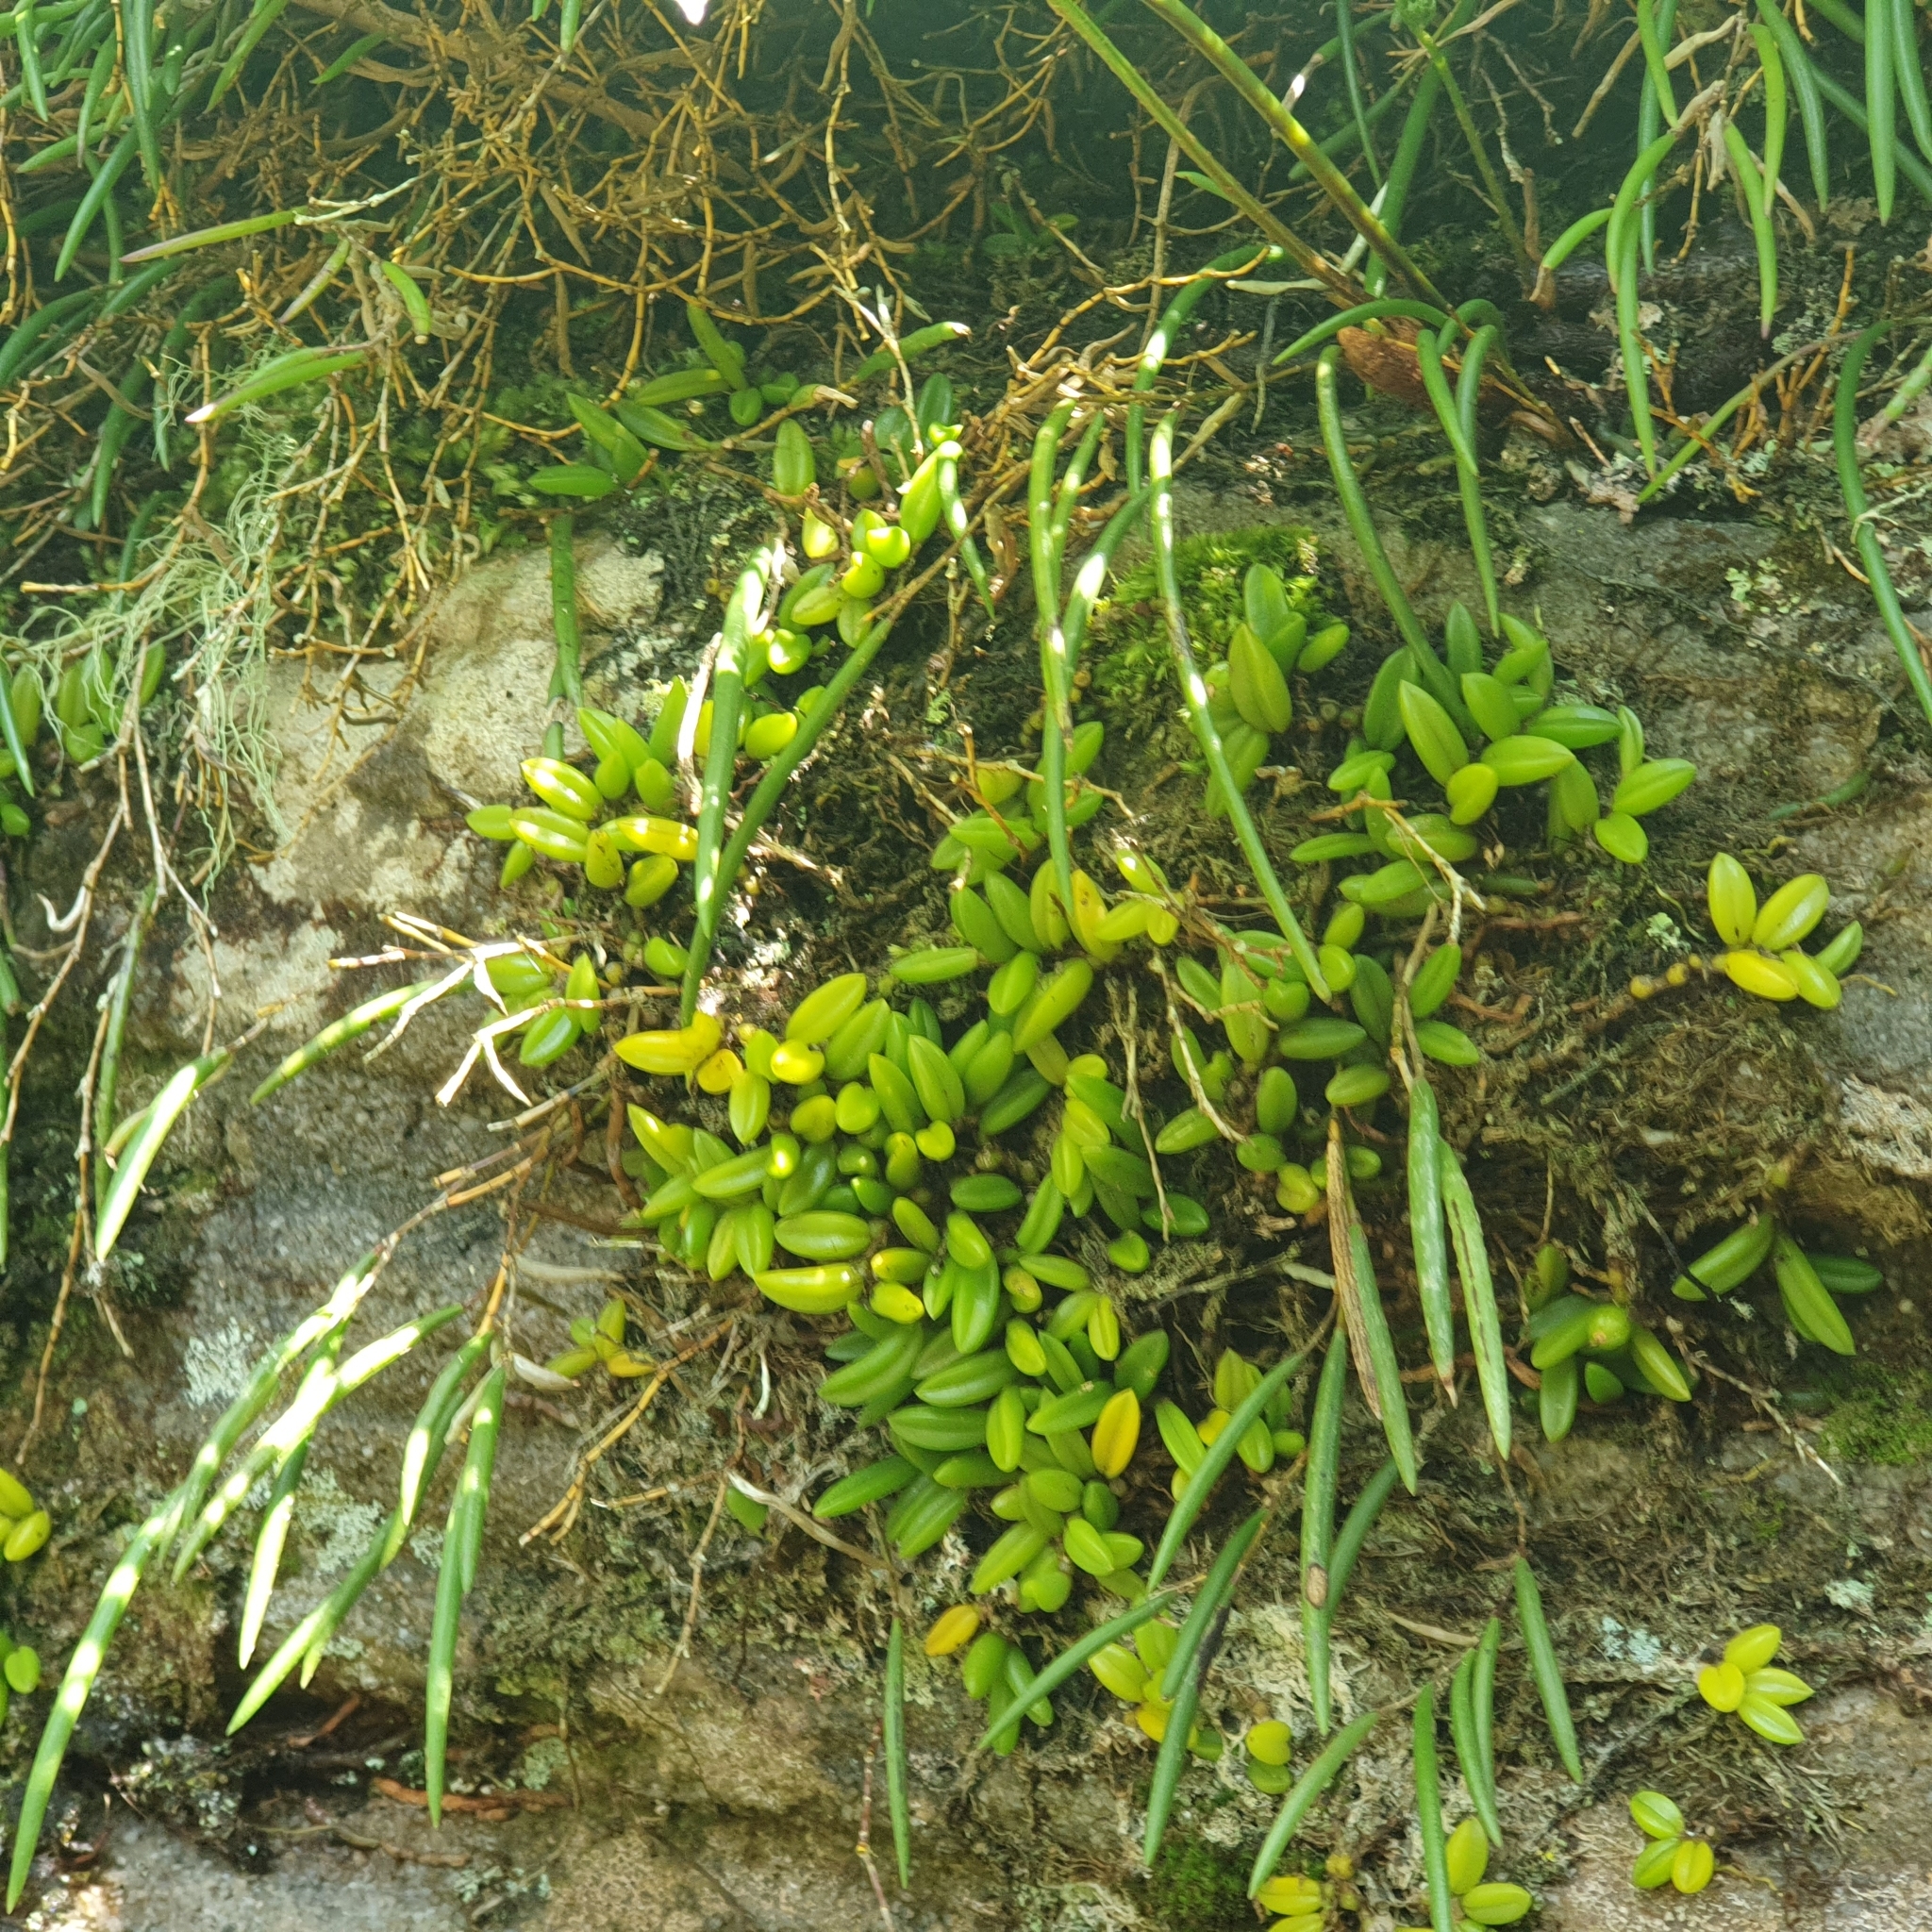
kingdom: Plantae
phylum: Tracheophyta
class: Liliopsida
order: Asparagales
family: Orchidaceae
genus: Bulbophyllum
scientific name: Bulbophyllum shepherdii
